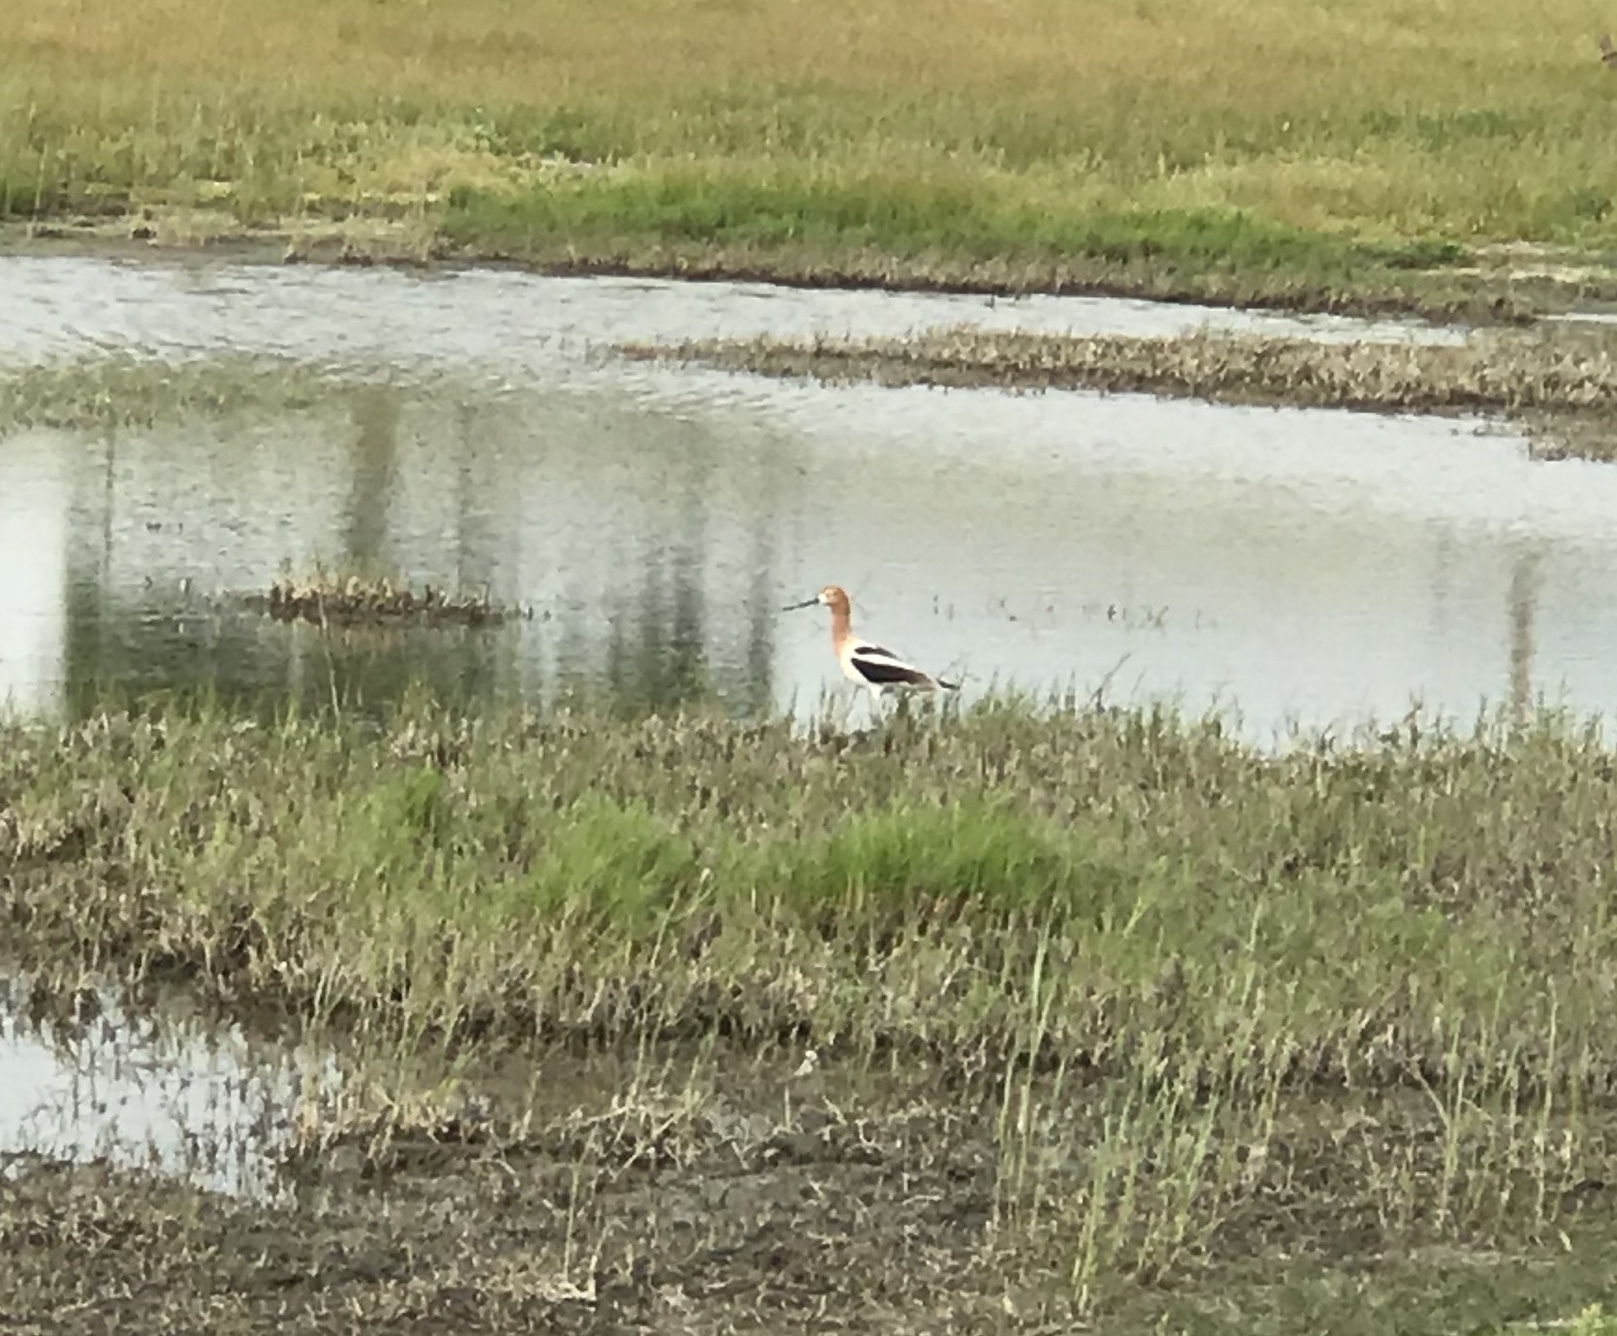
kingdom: Animalia
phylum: Chordata
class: Aves
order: Charadriiformes
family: Recurvirostridae
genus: Recurvirostra
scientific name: Recurvirostra americana
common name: American avocet
